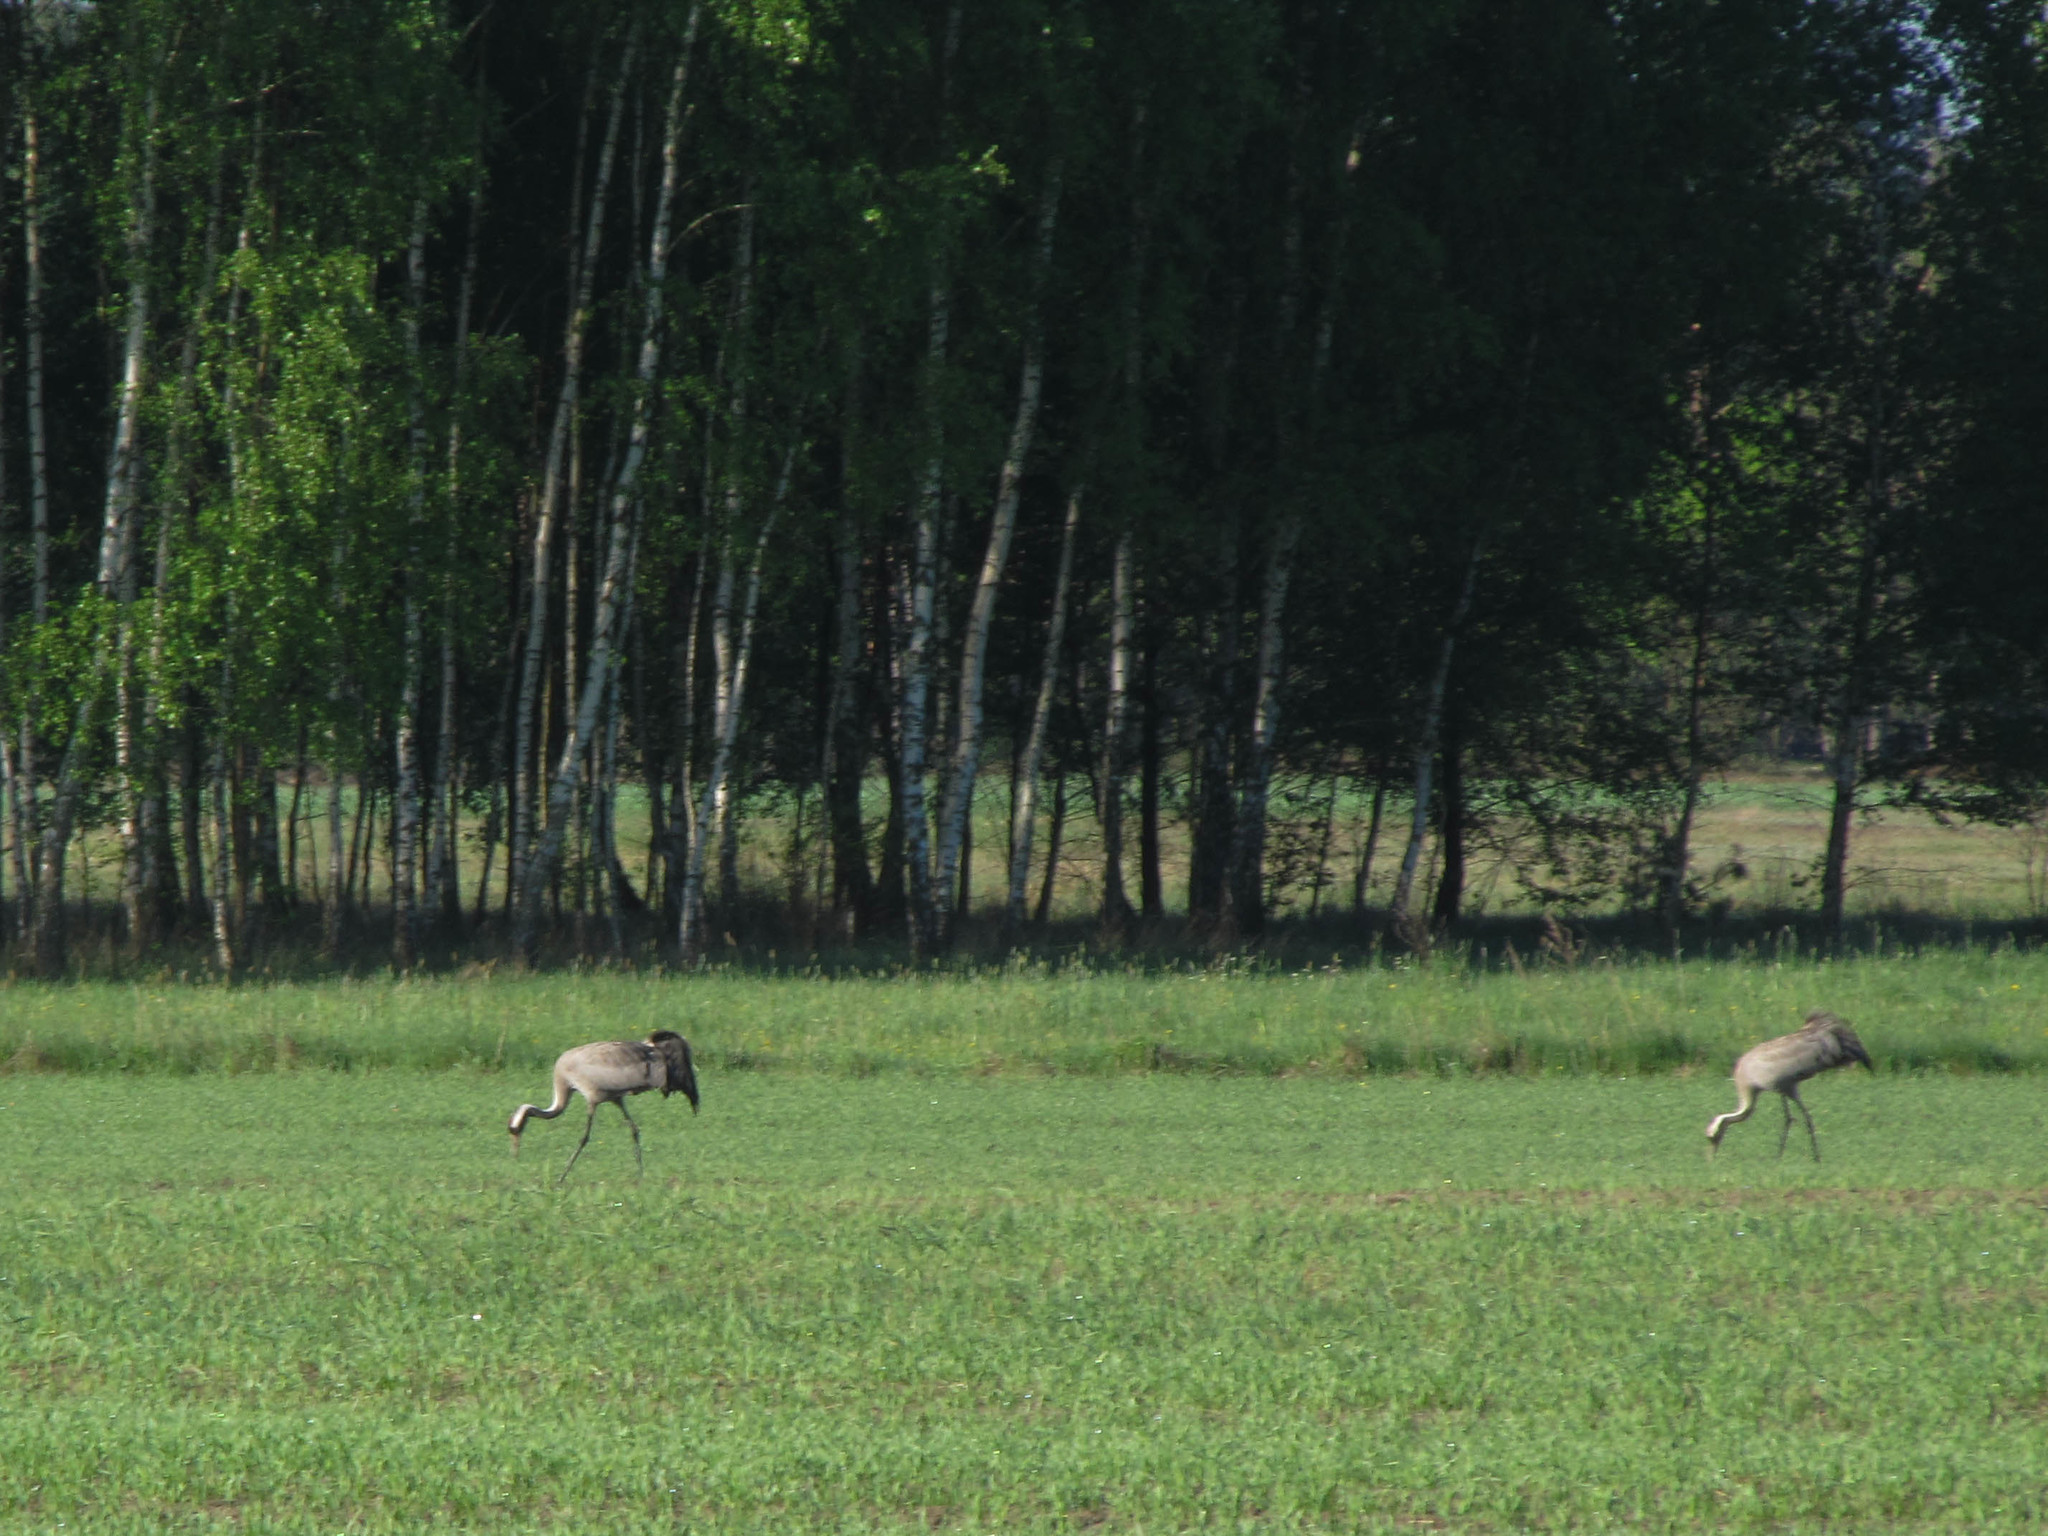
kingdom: Animalia
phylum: Chordata
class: Aves
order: Gruiformes
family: Gruidae
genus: Grus
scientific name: Grus grus
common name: Common crane
